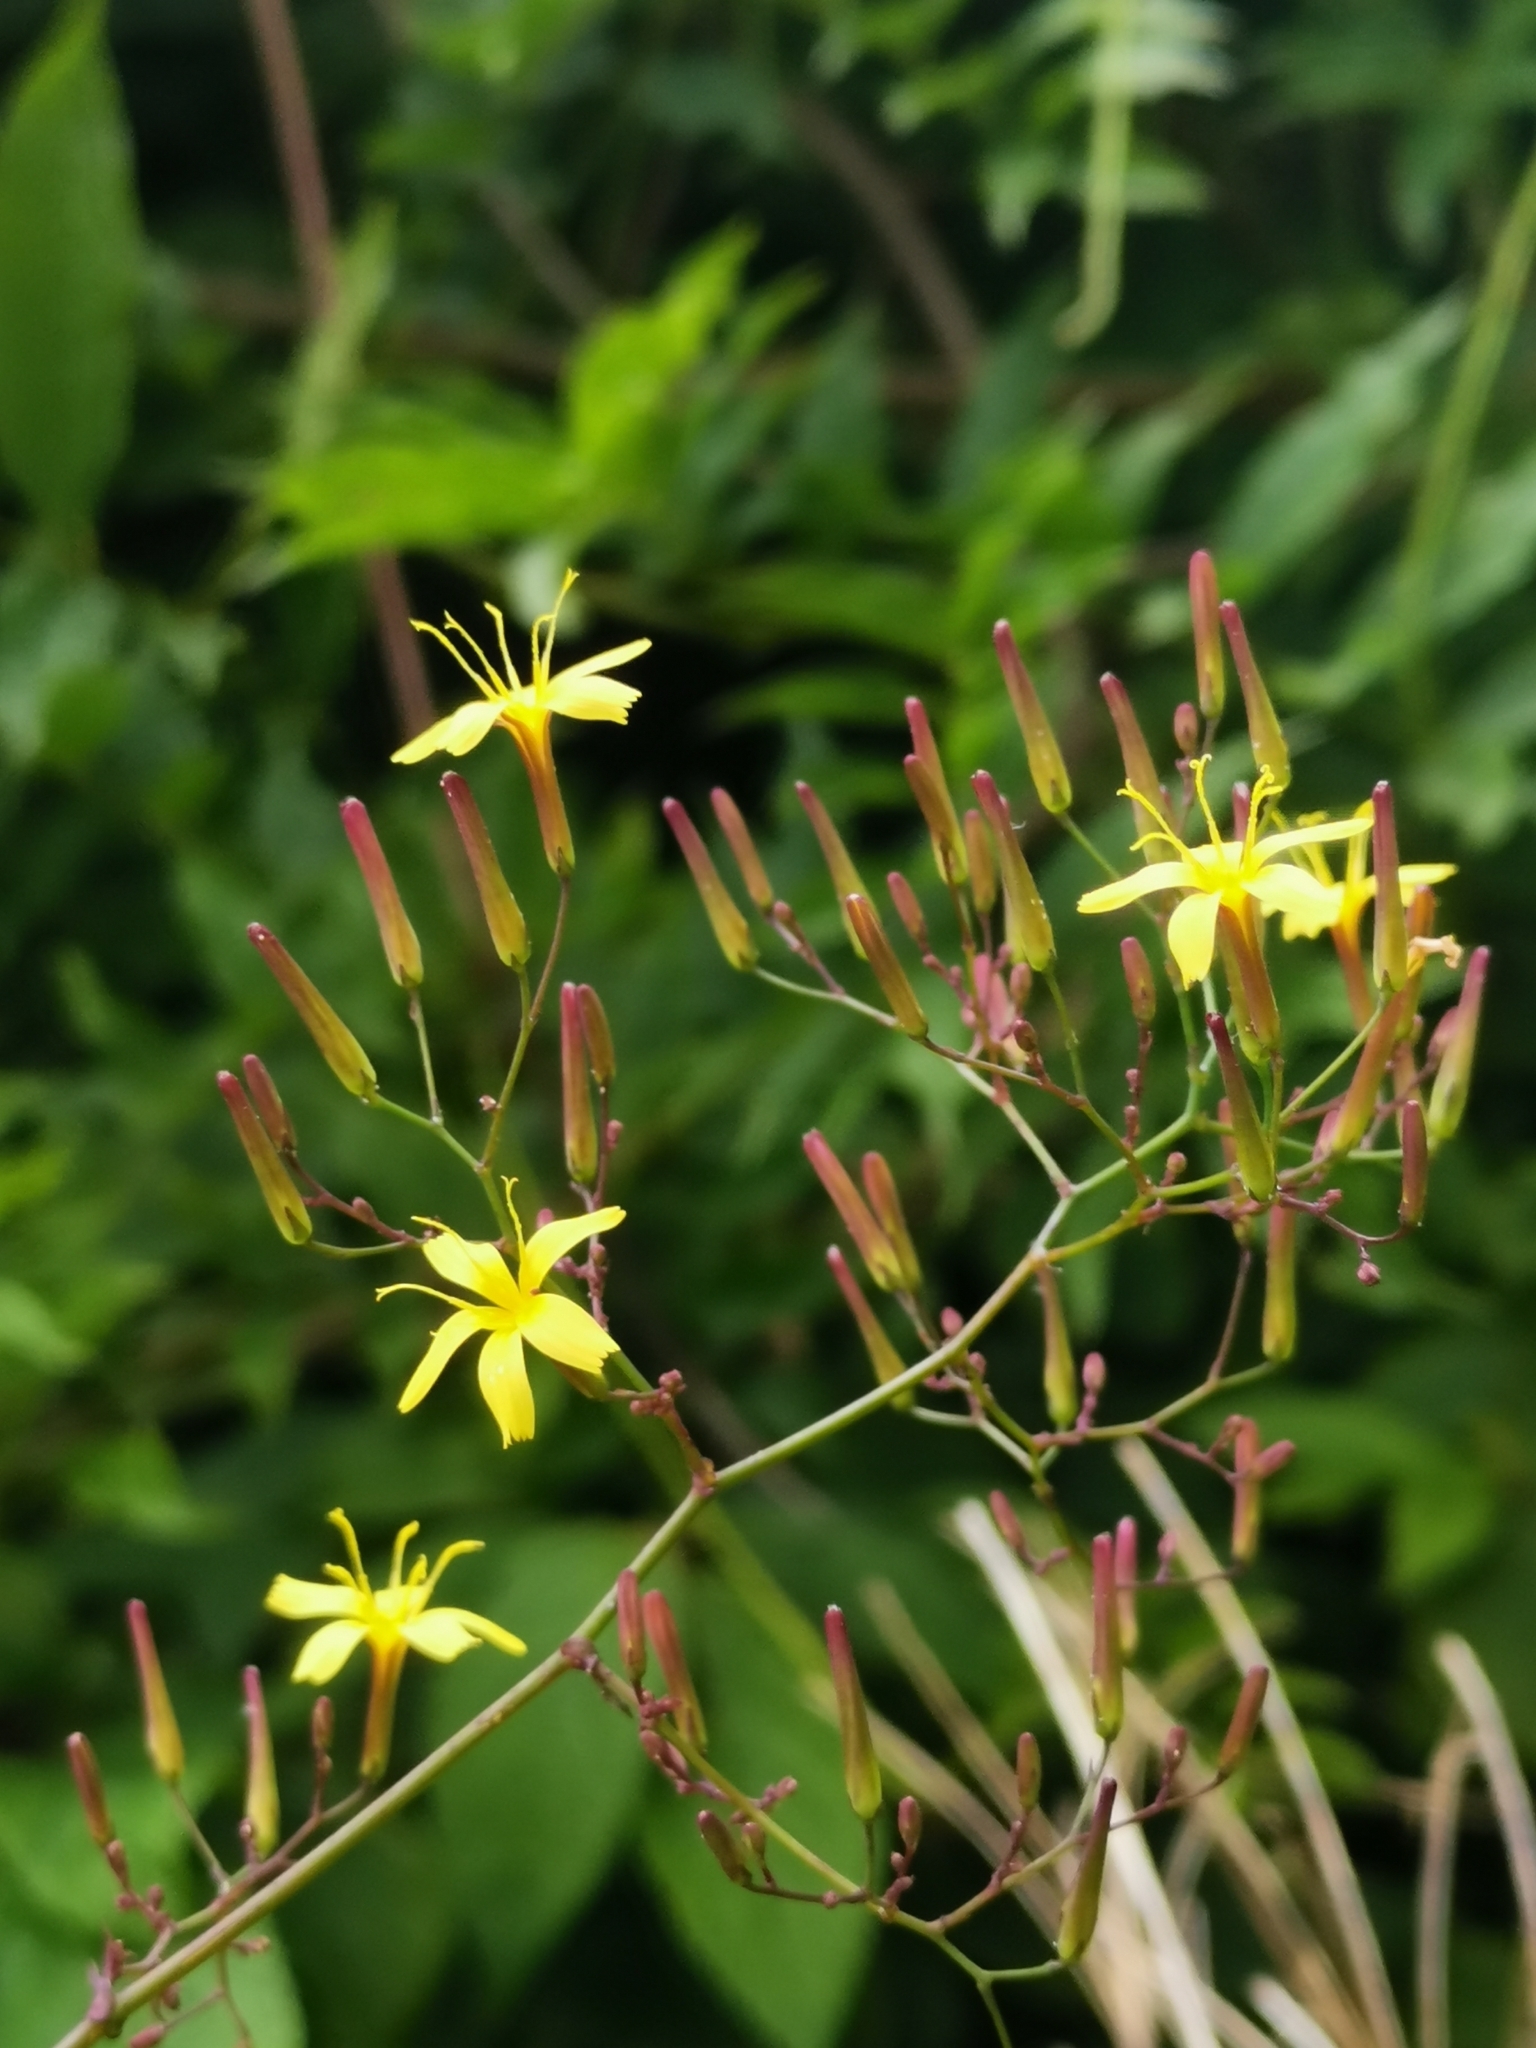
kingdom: Plantae
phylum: Tracheophyta
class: Magnoliopsida
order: Asterales
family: Asteraceae
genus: Mycelis
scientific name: Mycelis muralis
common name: Wall lettuce
